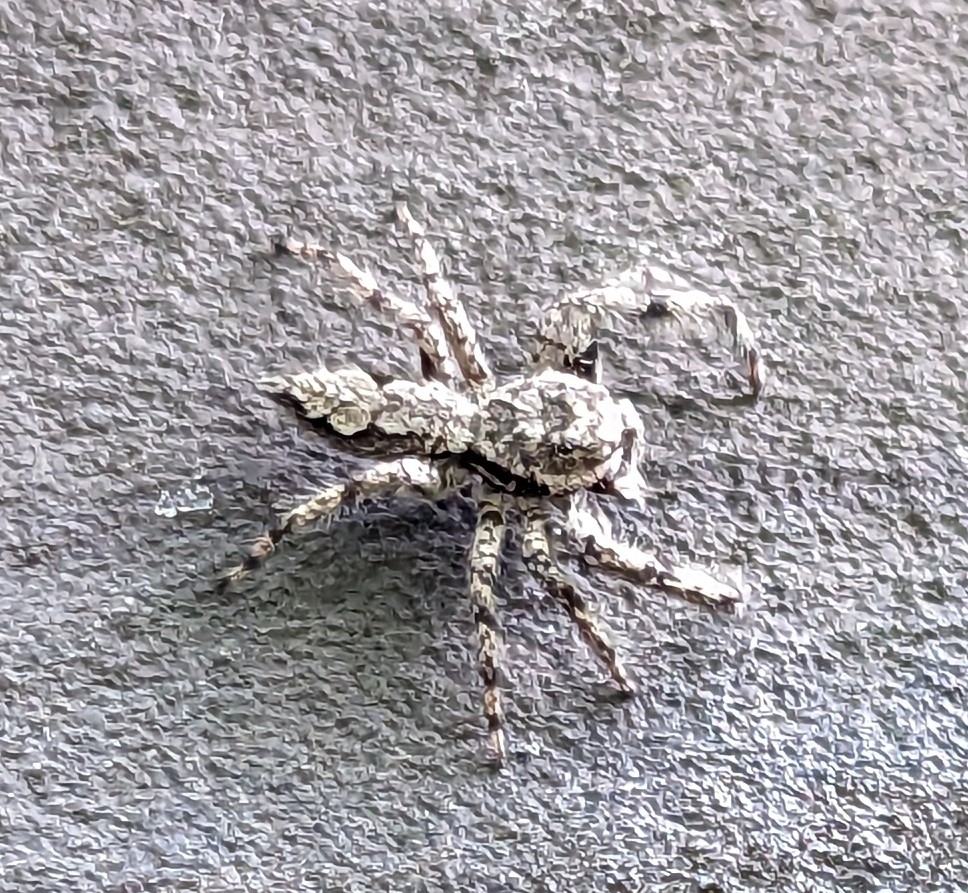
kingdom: Animalia
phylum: Arthropoda
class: Arachnida
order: Araneae
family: Salticidae
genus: Platycryptus
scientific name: Platycryptus undatus
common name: Tan jumping spider
